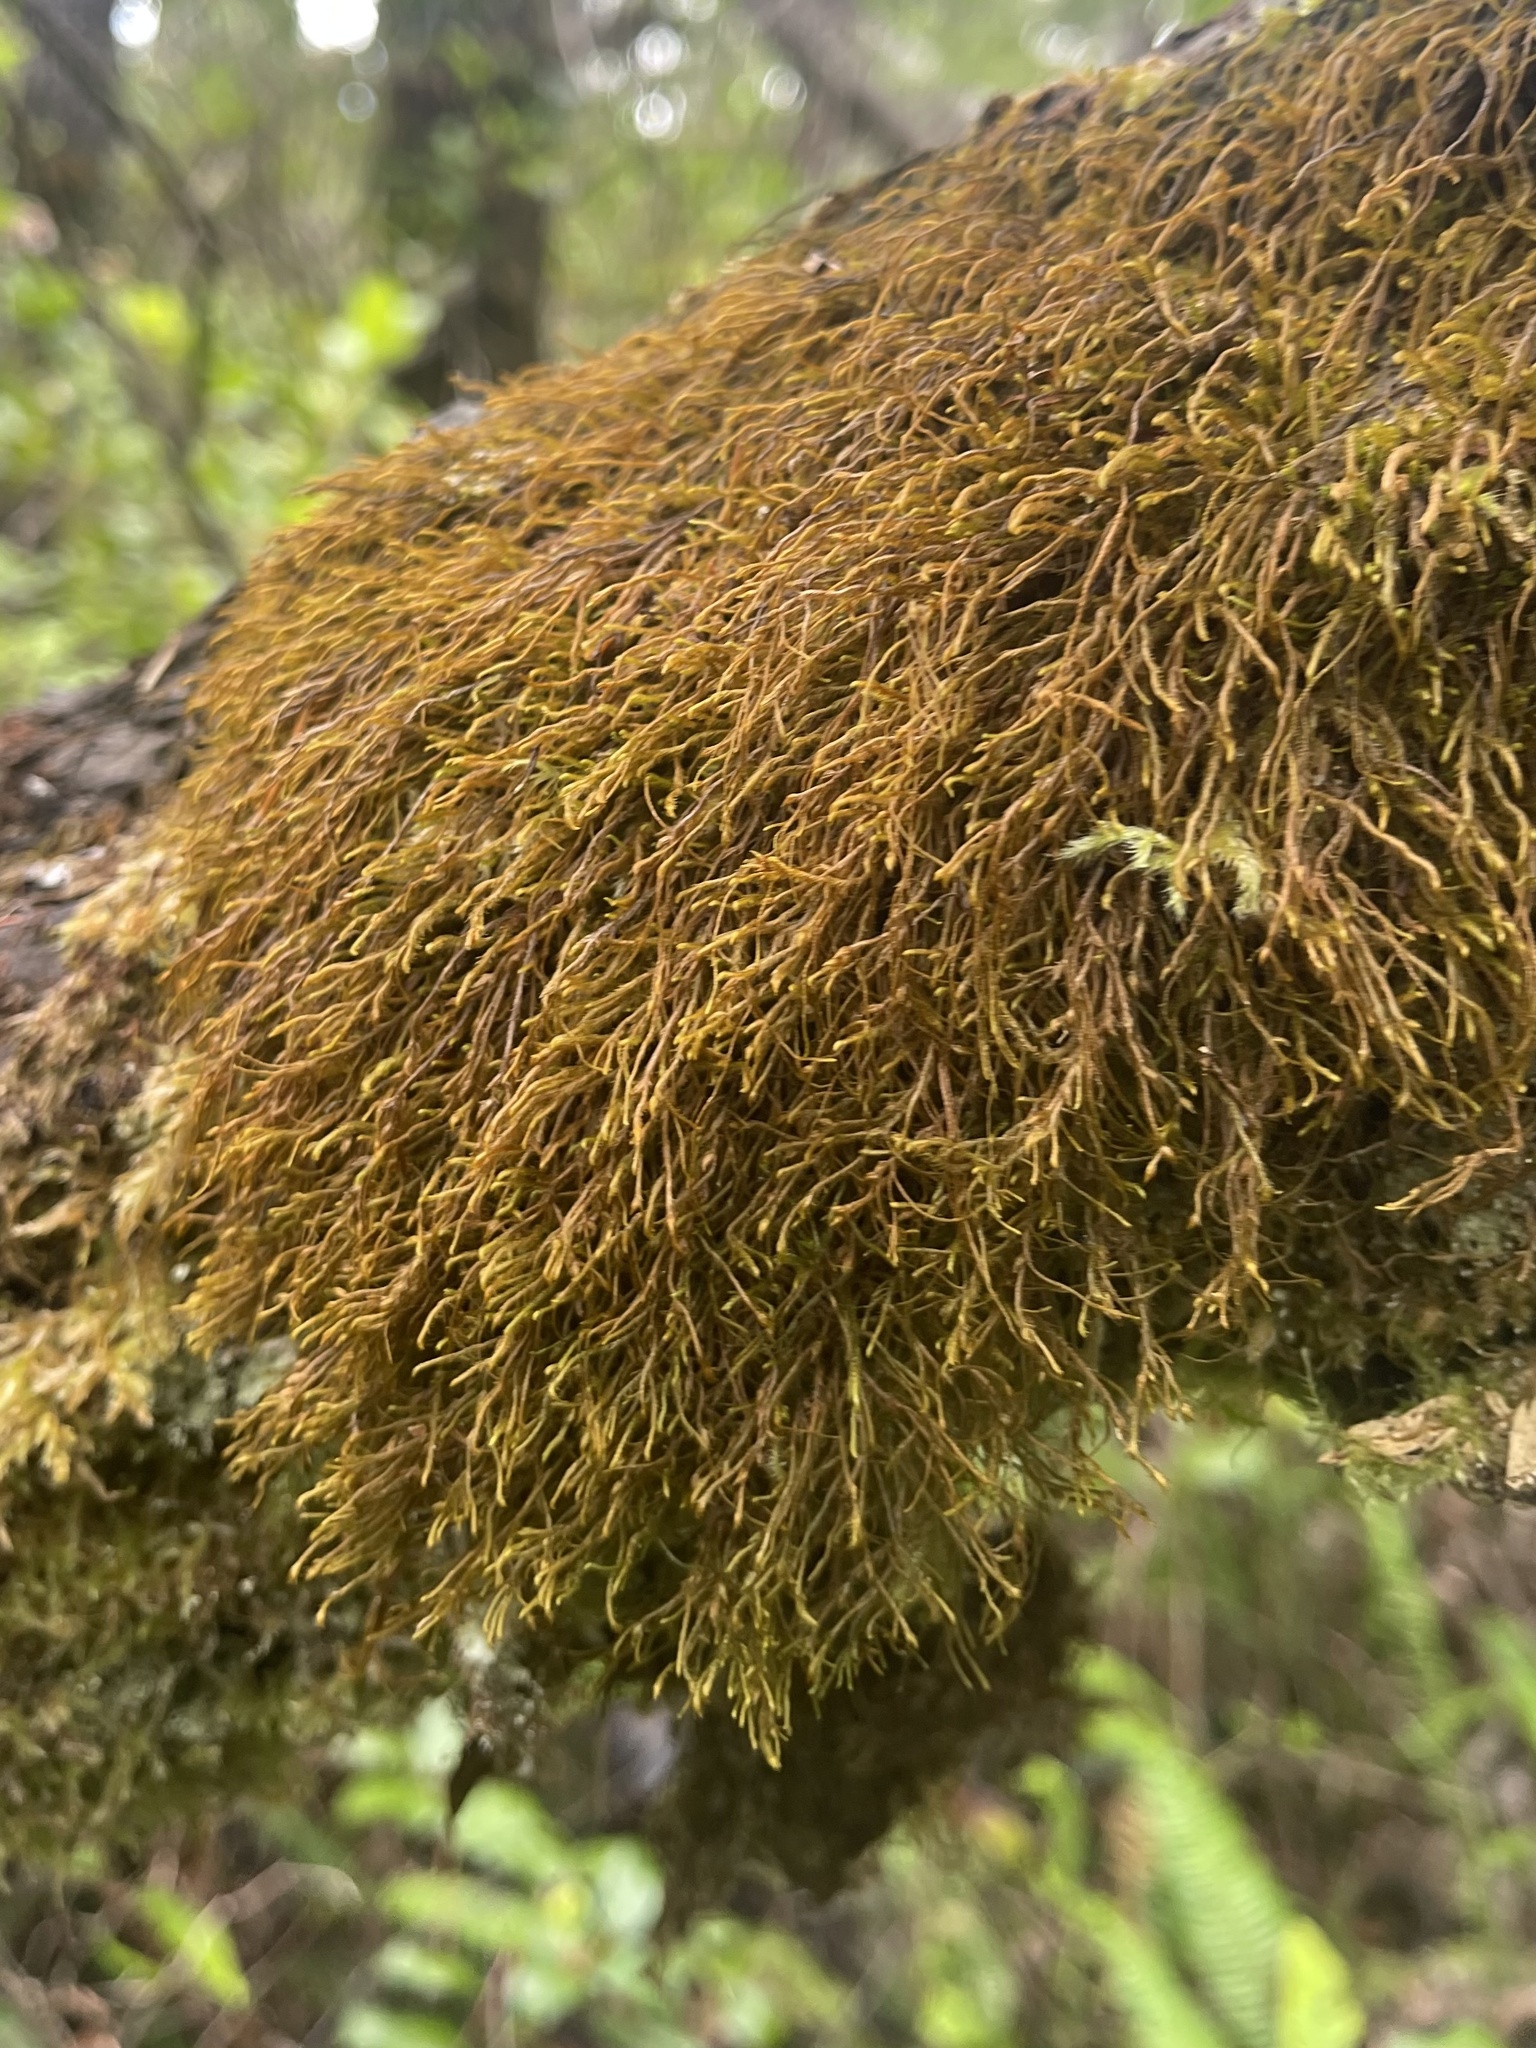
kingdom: Plantae
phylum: Marchantiophyta
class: Jungermanniopsida
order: Jungermanniales
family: Herbertaceae
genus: Herbertus
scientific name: Herbertus aduncus
